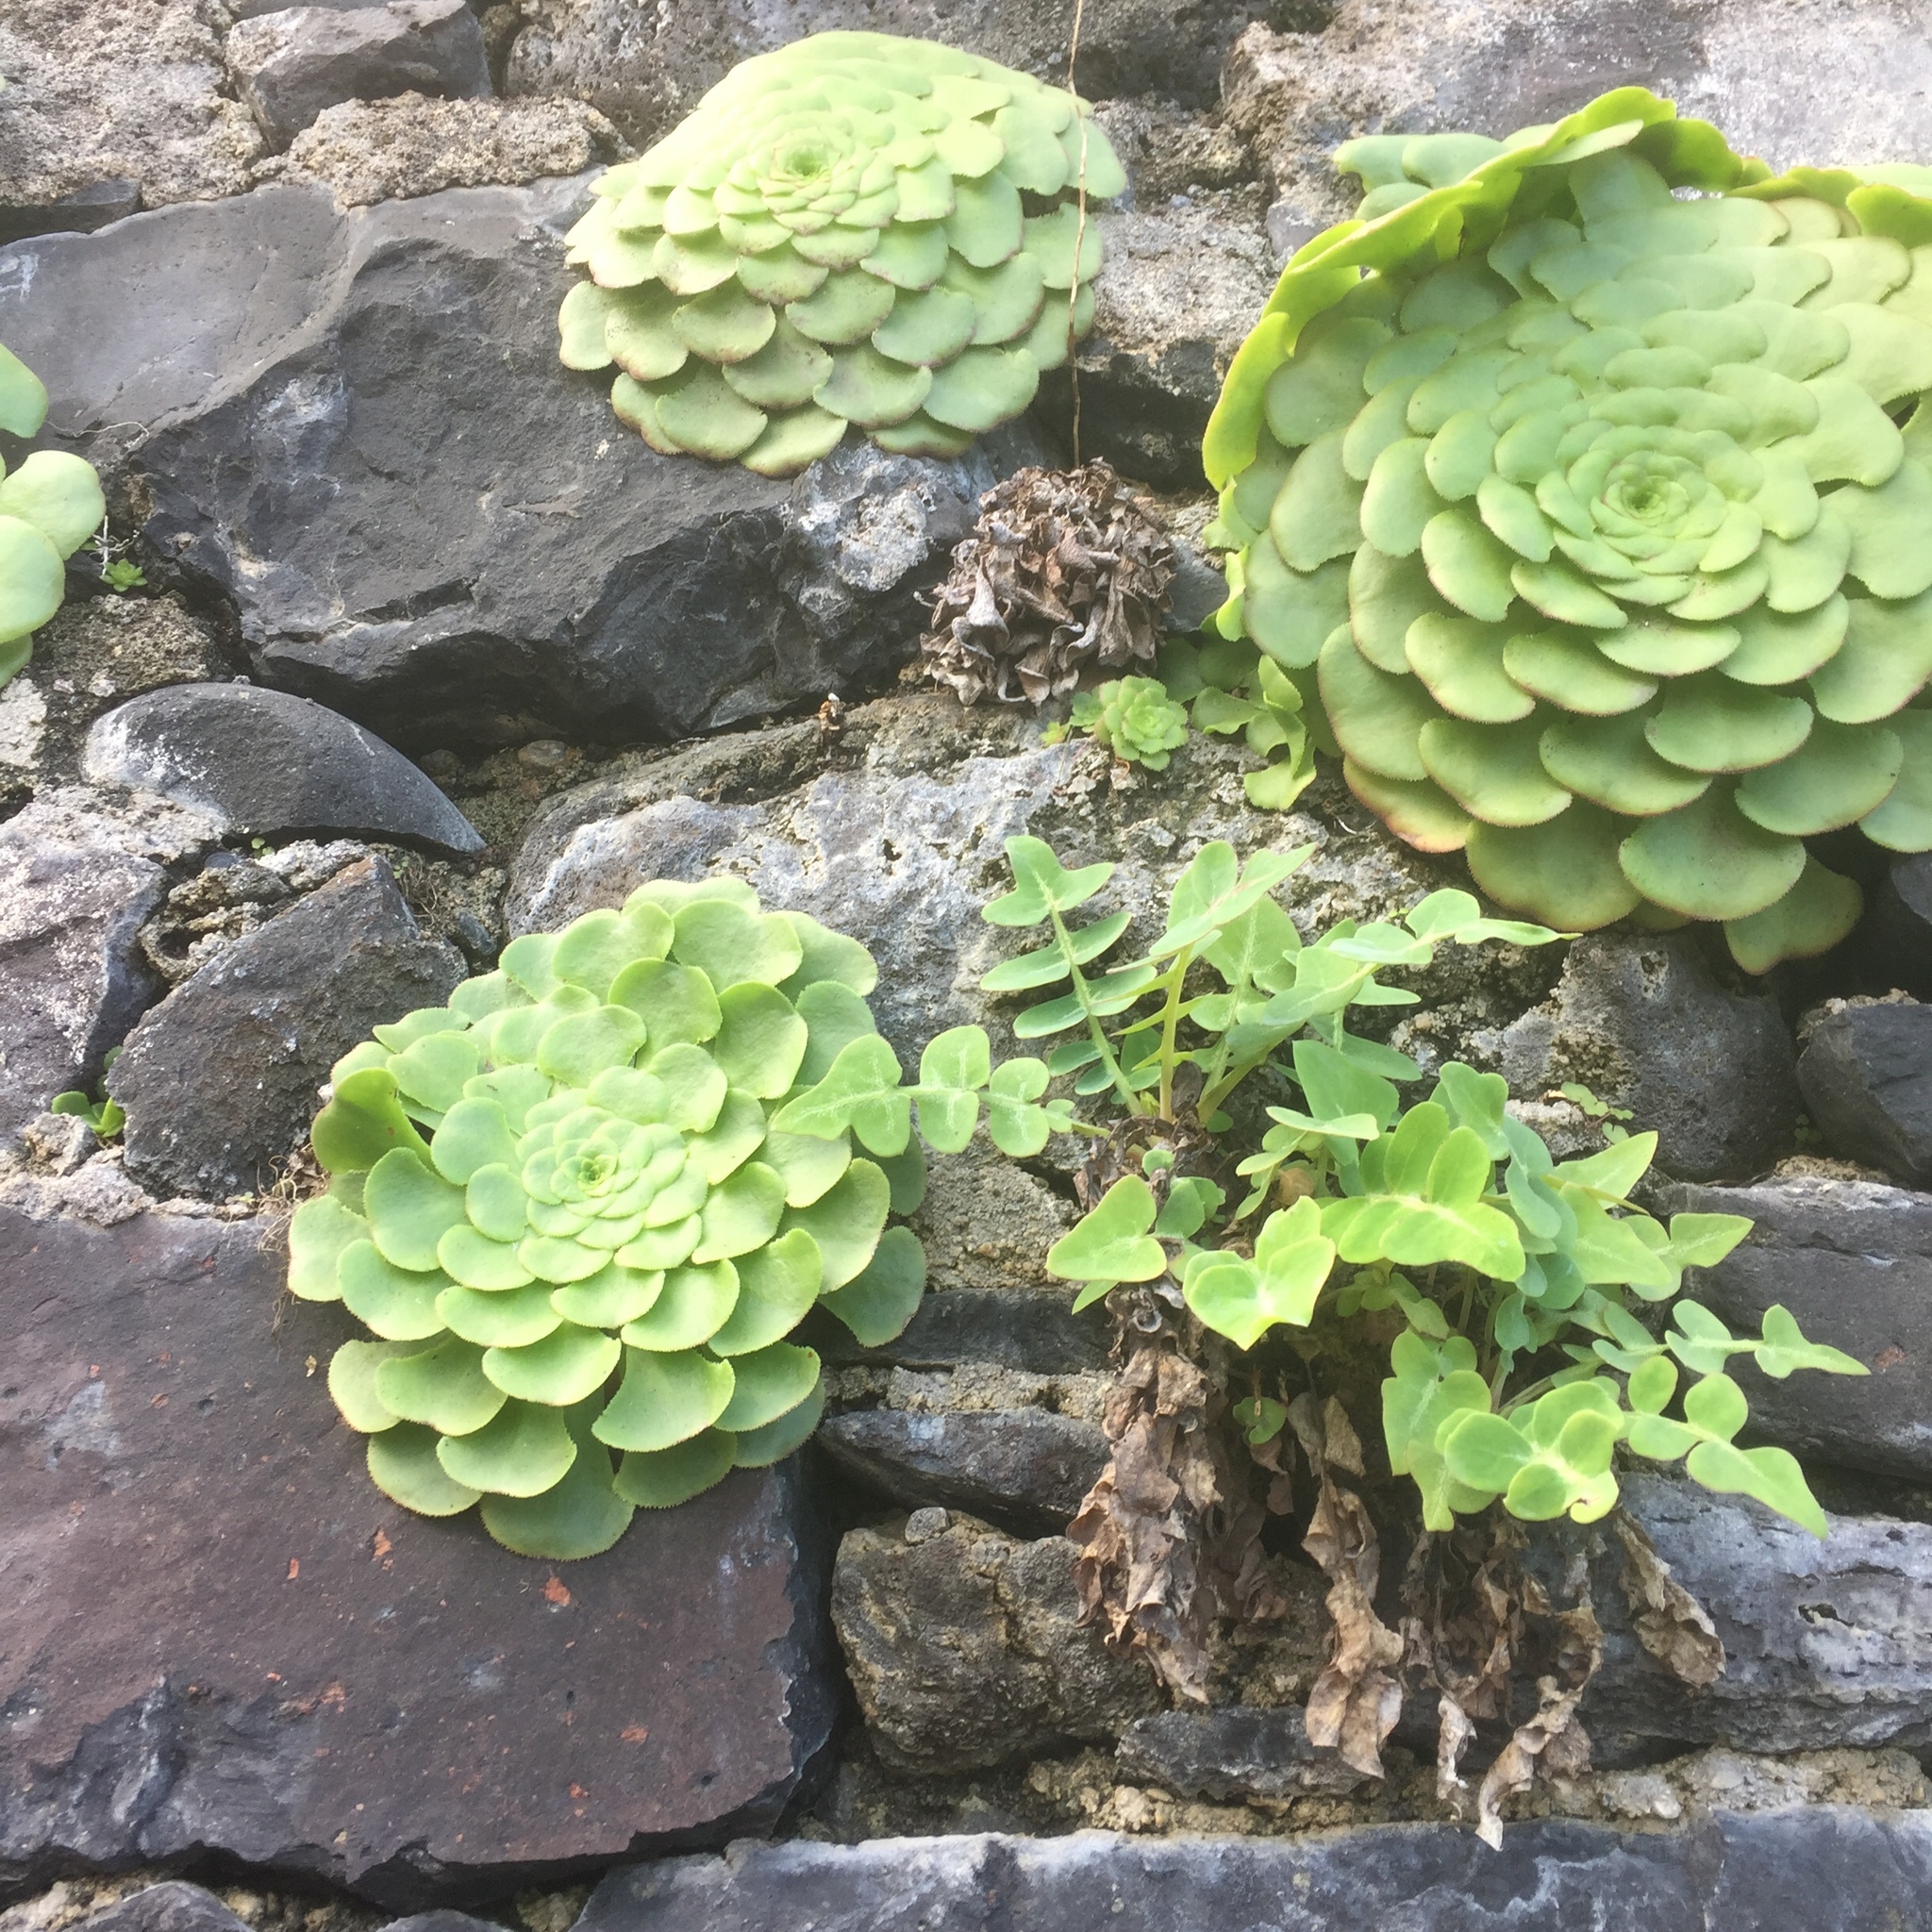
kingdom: Plantae
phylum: Tracheophyta
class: Magnoliopsida
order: Saxifragales
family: Crassulaceae
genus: Aeonium
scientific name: Aeonium glandulosum
